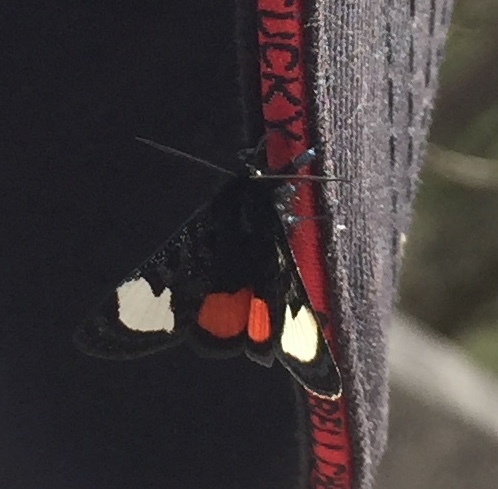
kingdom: Animalia
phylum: Arthropoda
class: Insecta
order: Lepidoptera
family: Noctuidae
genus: Psychomorpha
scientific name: Psychomorpha epimenis
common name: Grapevine epimenis moth
